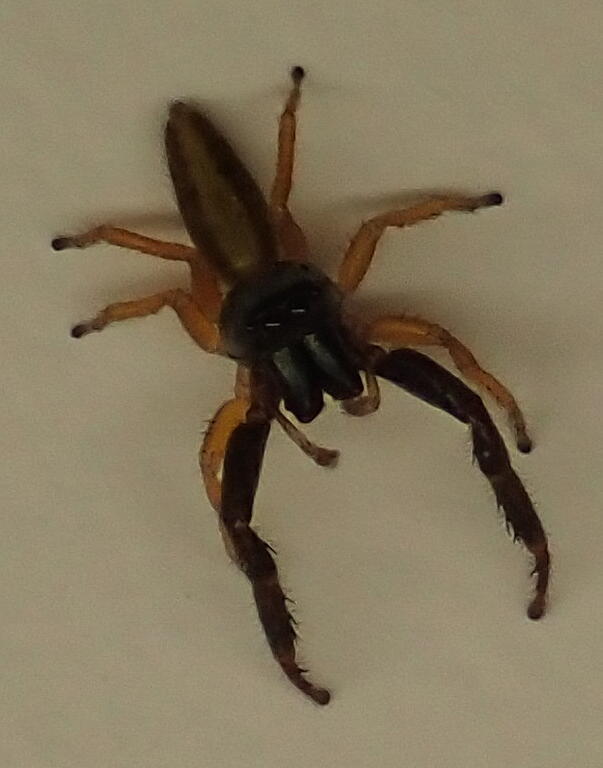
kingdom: Animalia
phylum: Arthropoda
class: Arachnida
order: Araneae
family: Salticidae
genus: Trite
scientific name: Trite planiceps
